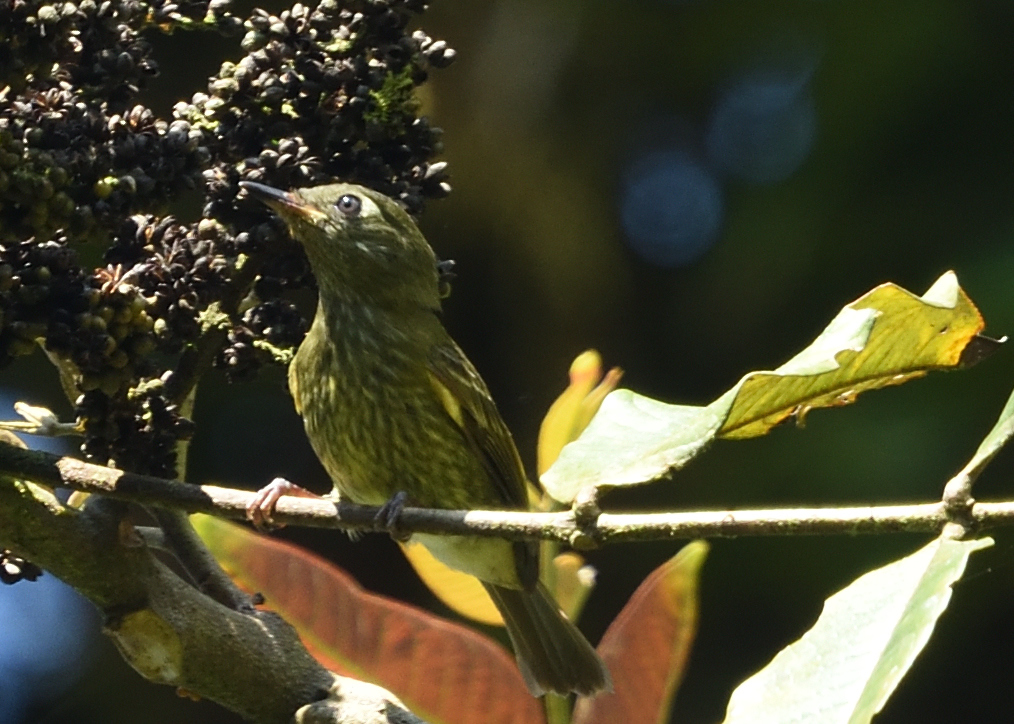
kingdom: Animalia
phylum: Chordata
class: Aves
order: Passeriformes
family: Tyrannidae
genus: Mionectes
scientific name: Mionectes galbinus
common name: Olive-striped flycatcher
